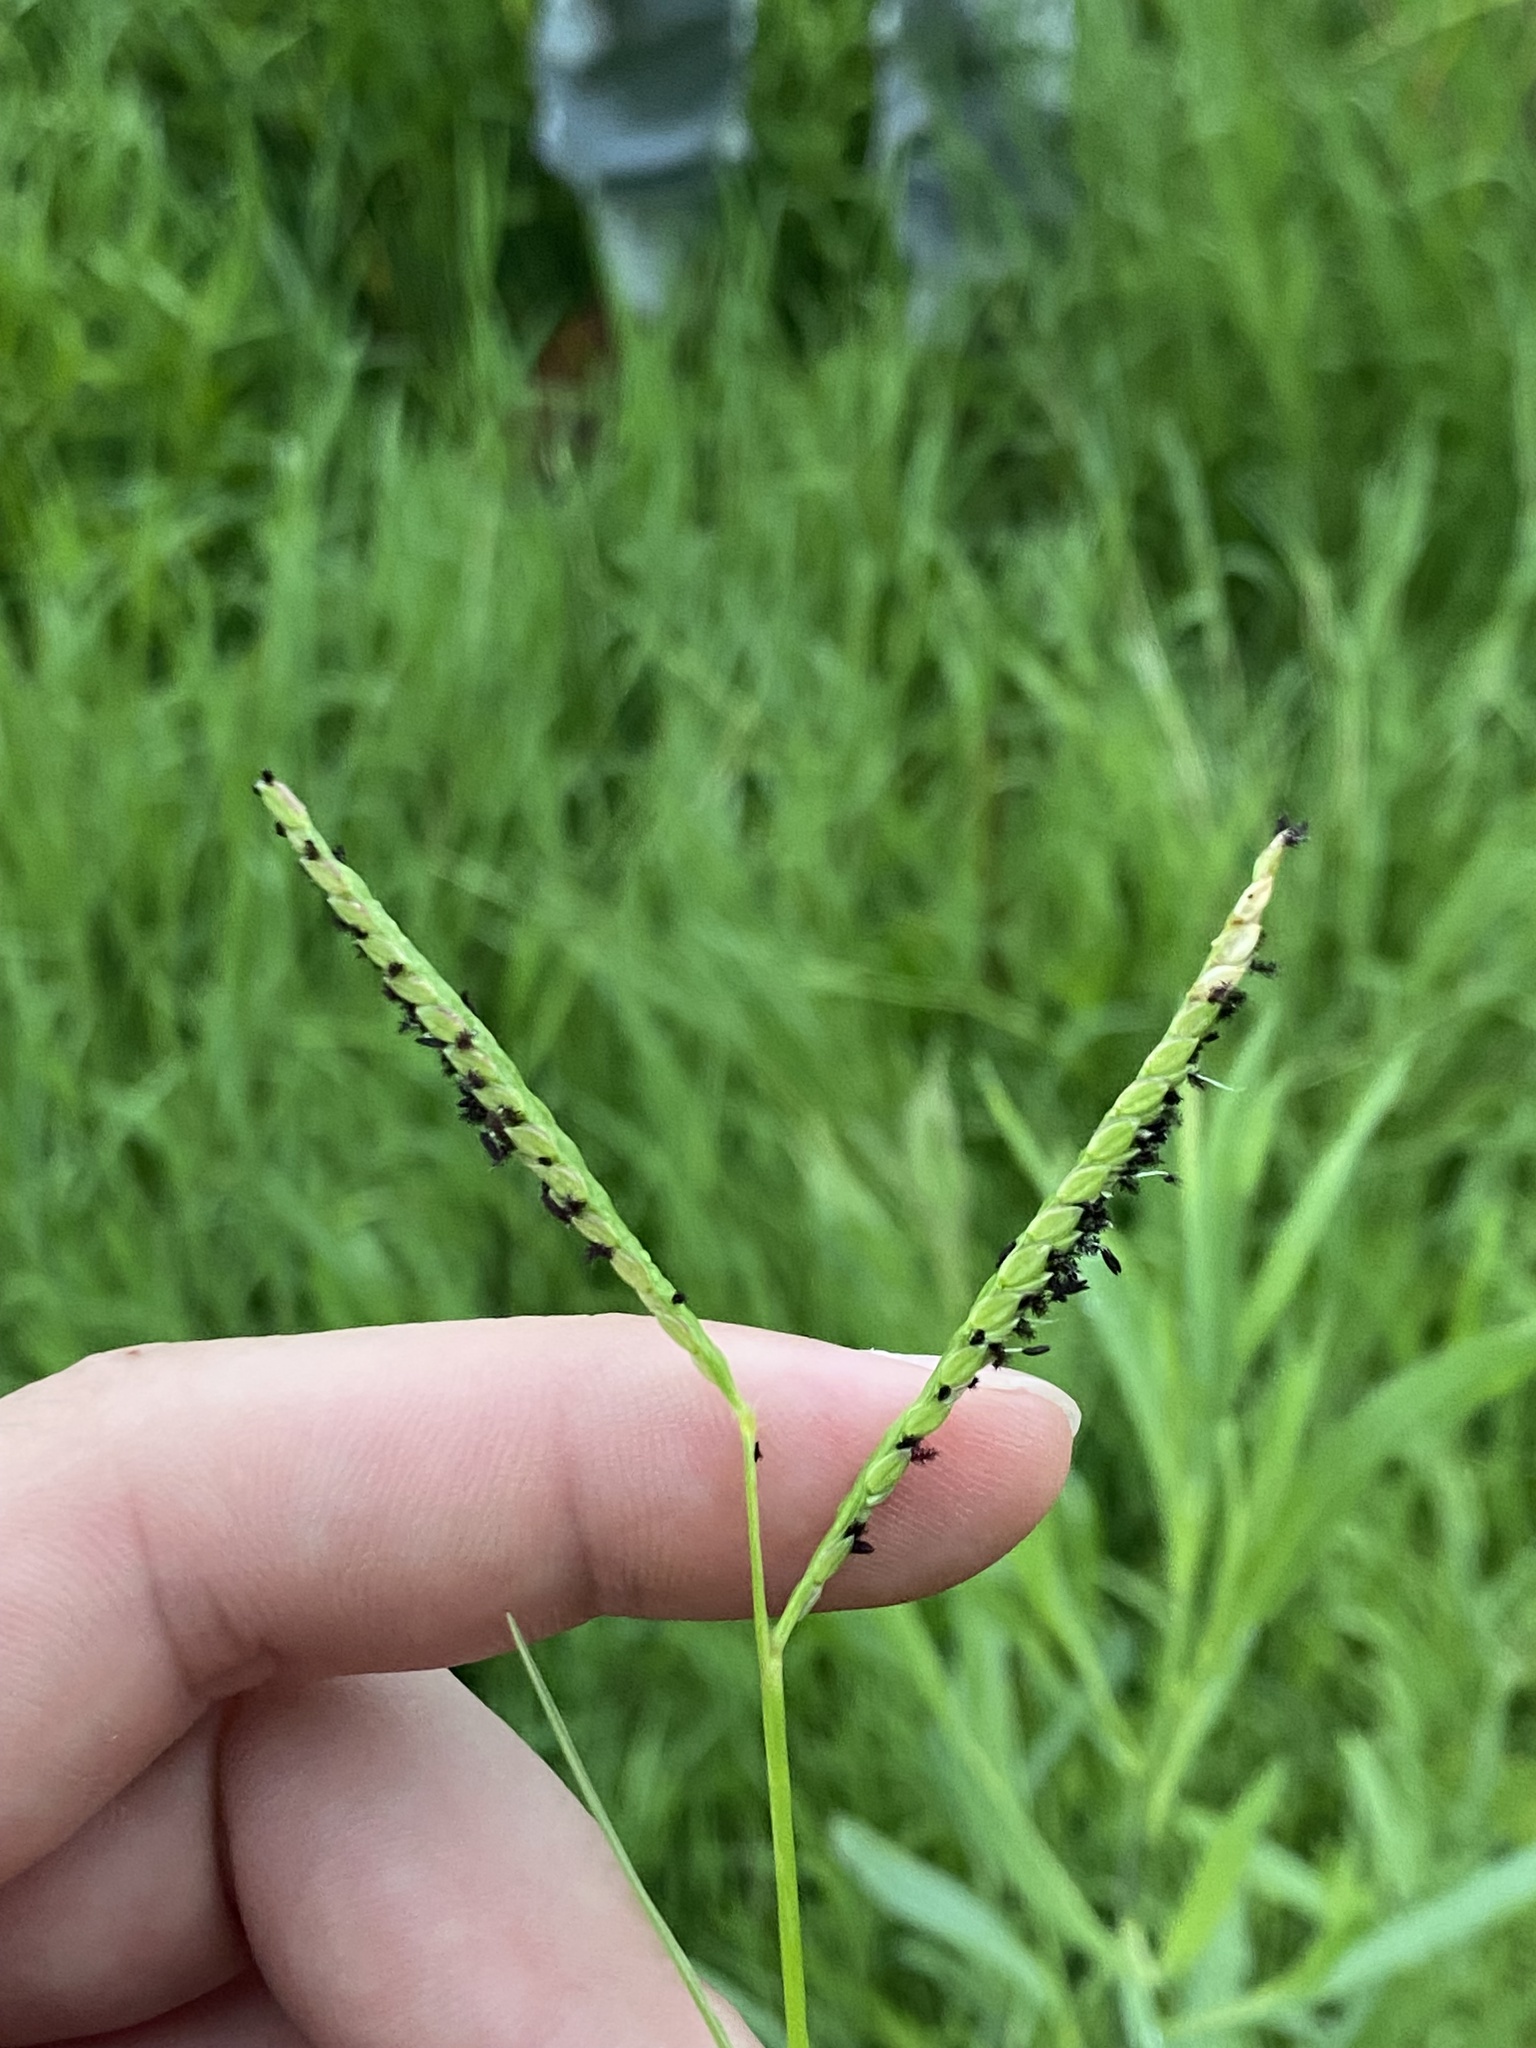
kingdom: Plantae
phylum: Tracheophyta
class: Liliopsida
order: Poales
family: Poaceae
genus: Paspalum
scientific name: Paspalum distichum
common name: Knotgrass
